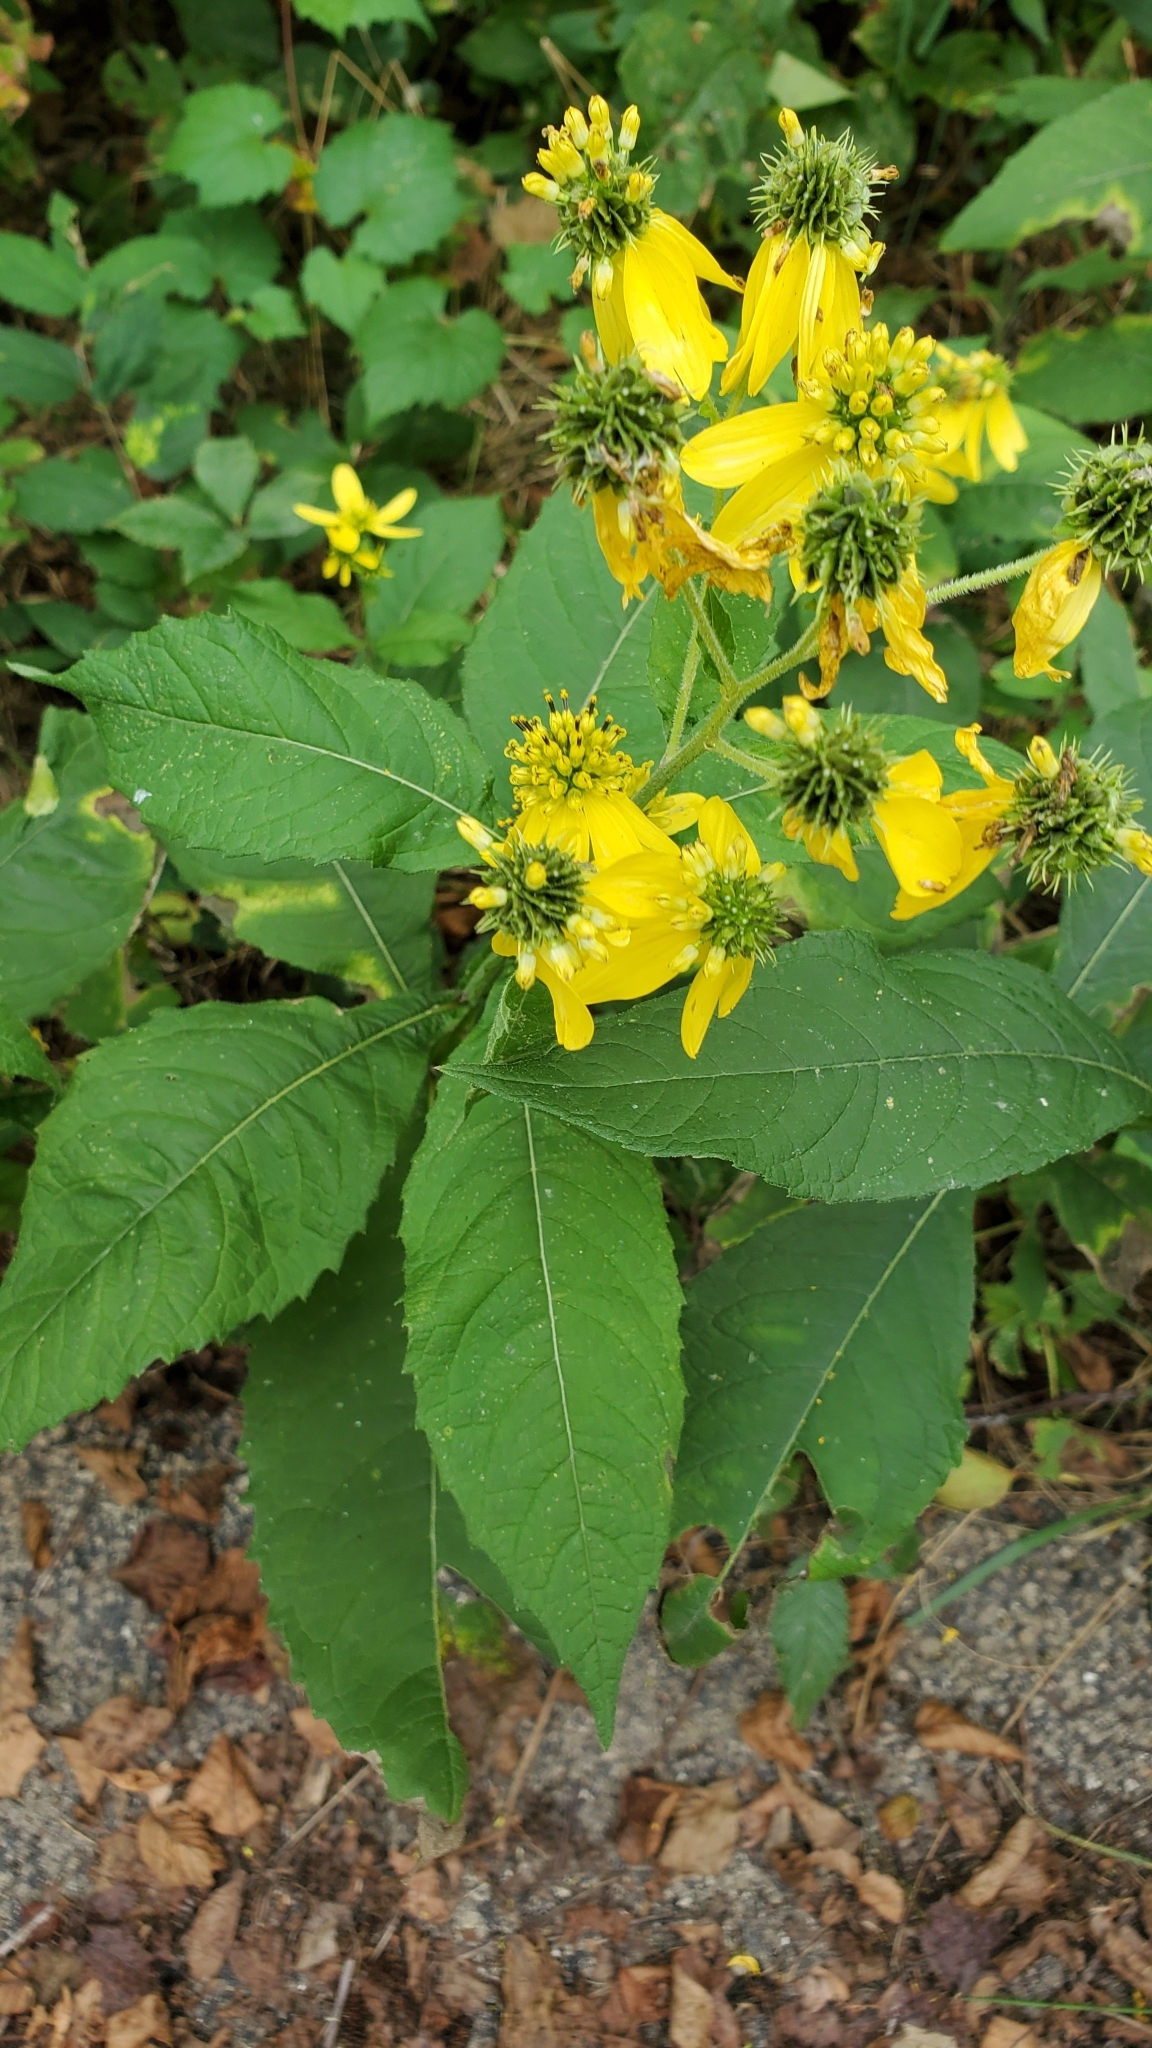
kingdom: Plantae
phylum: Tracheophyta
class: Magnoliopsida
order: Asterales
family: Asteraceae
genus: Verbesina
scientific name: Verbesina alternifolia
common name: Wingstem
